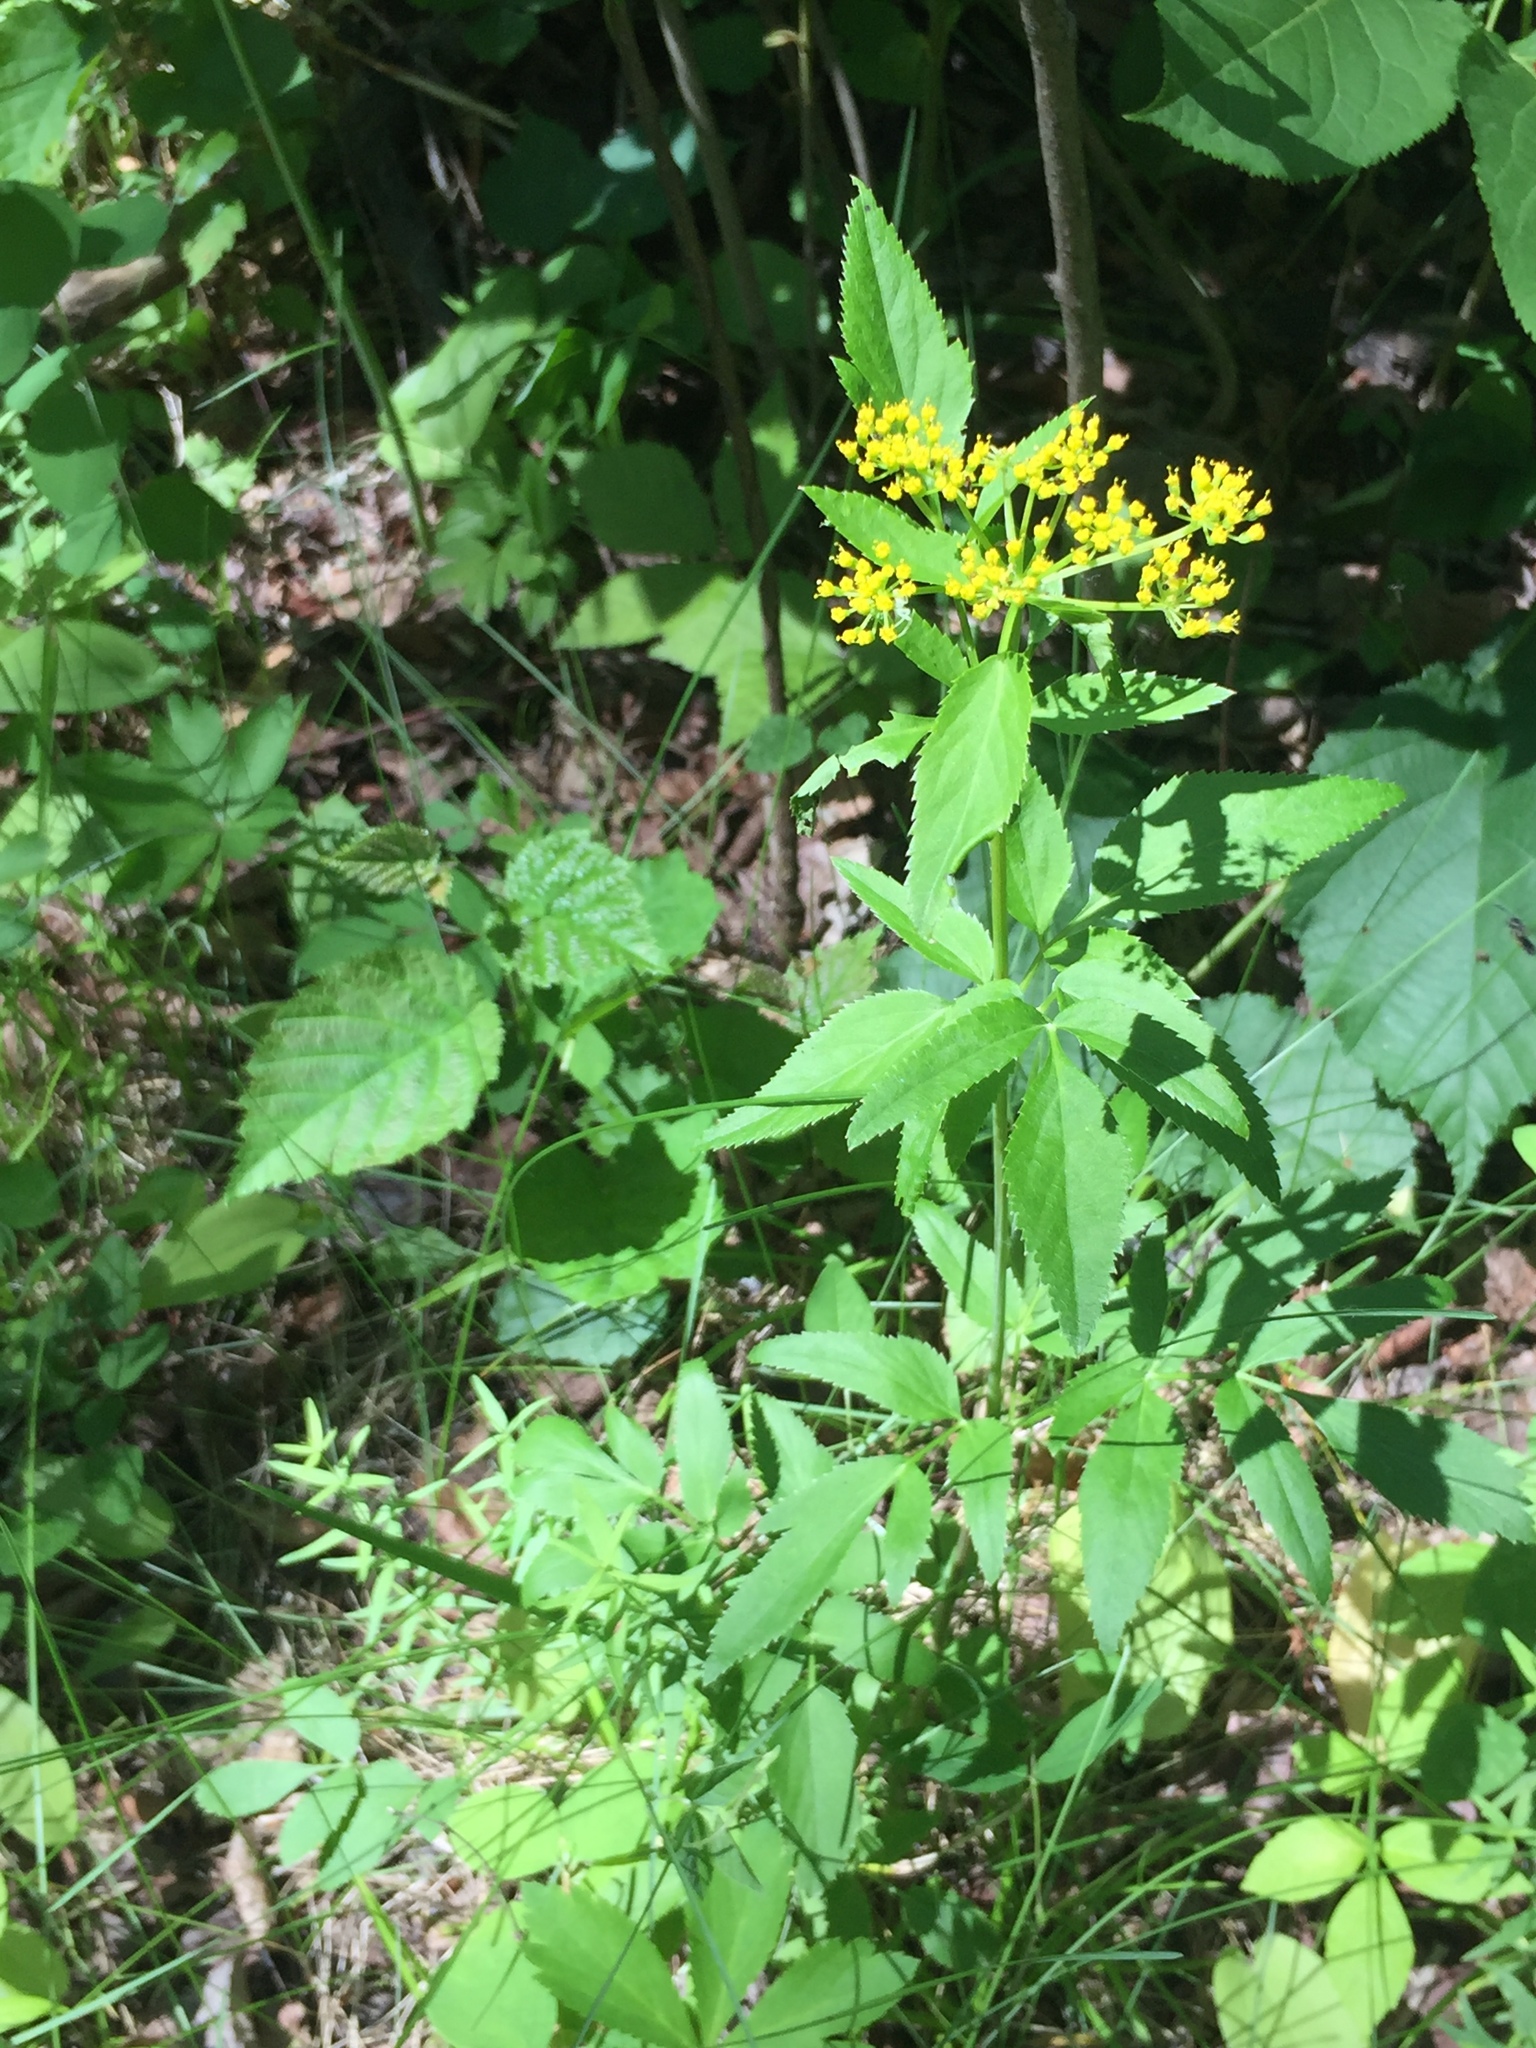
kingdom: Plantae
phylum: Tracheophyta
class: Magnoliopsida
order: Apiales
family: Apiaceae
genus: Zizia
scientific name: Zizia aurea
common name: Golden alexanders
